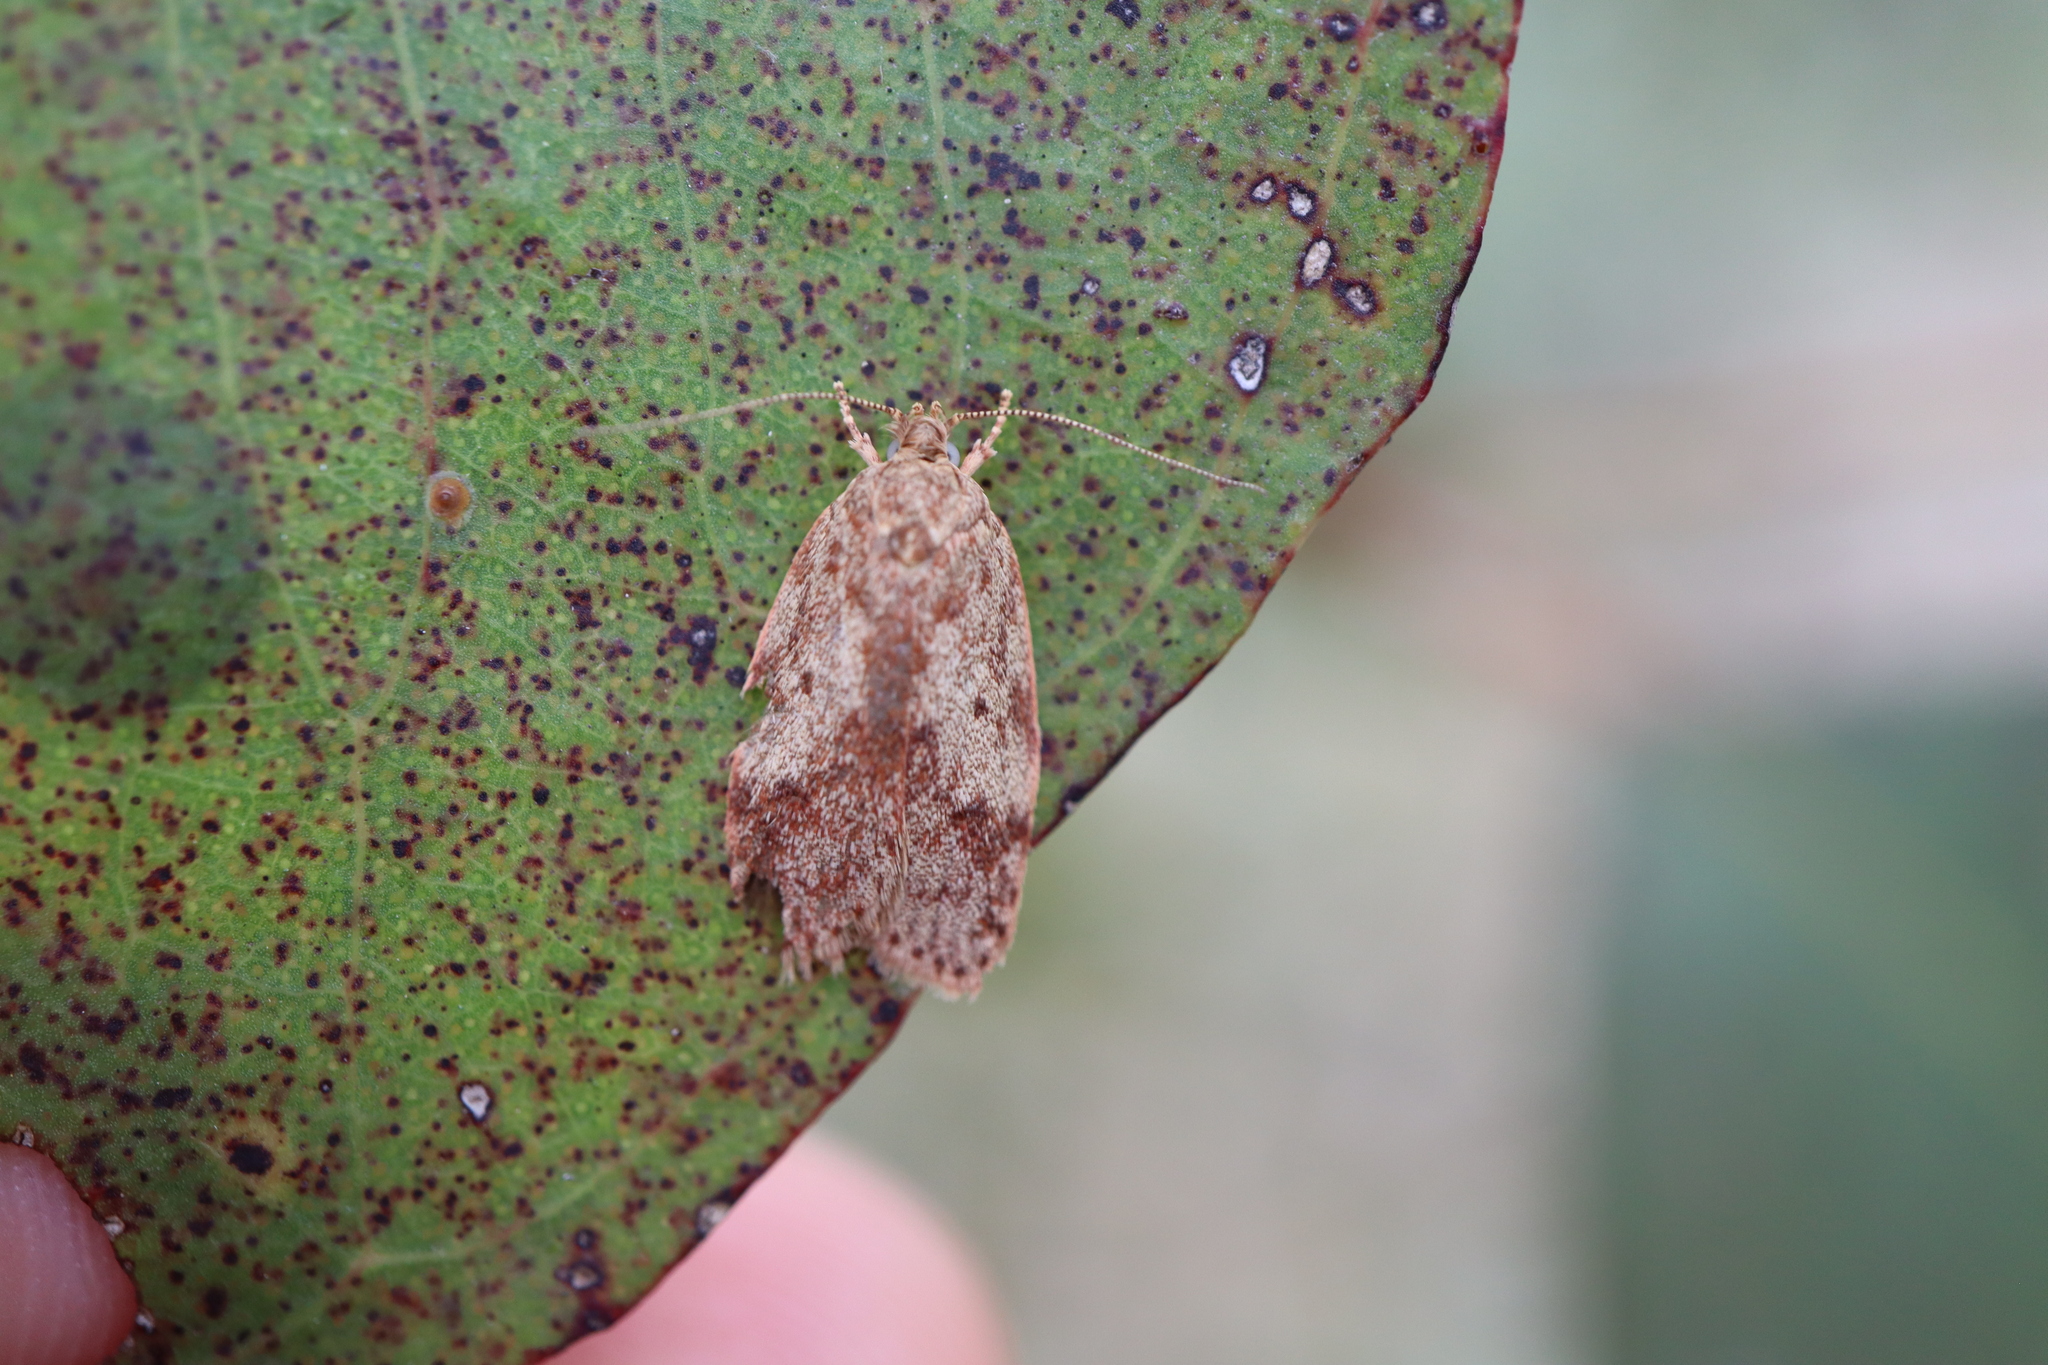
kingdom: Animalia
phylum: Arthropoda
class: Insecta
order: Lepidoptera
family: Oecophoridae
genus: Oligoloba
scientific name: Oligoloba severa
